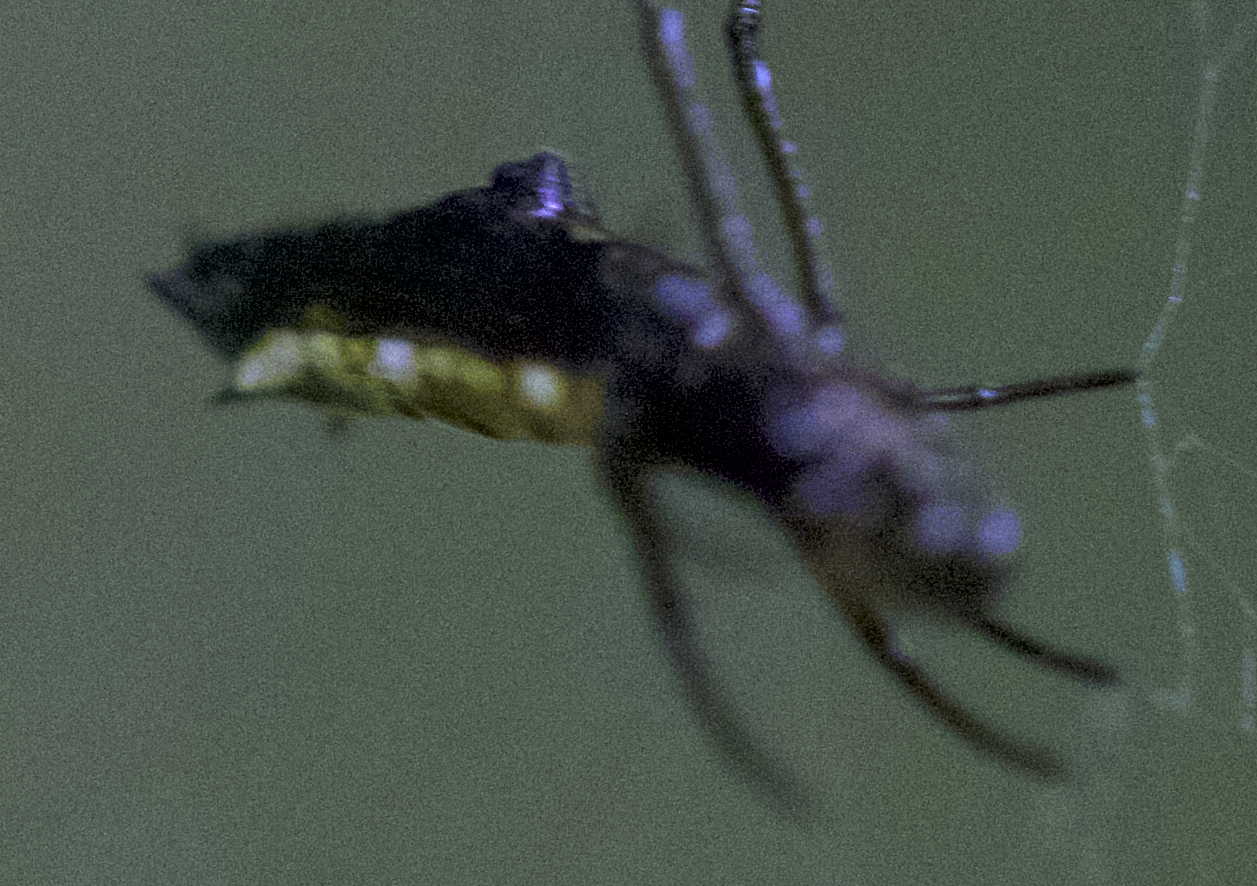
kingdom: Animalia
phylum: Arthropoda
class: Arachnida
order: Araneae
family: Araneidae
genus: Micrathena
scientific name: Micrathena agriliformis
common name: Orb weavers
